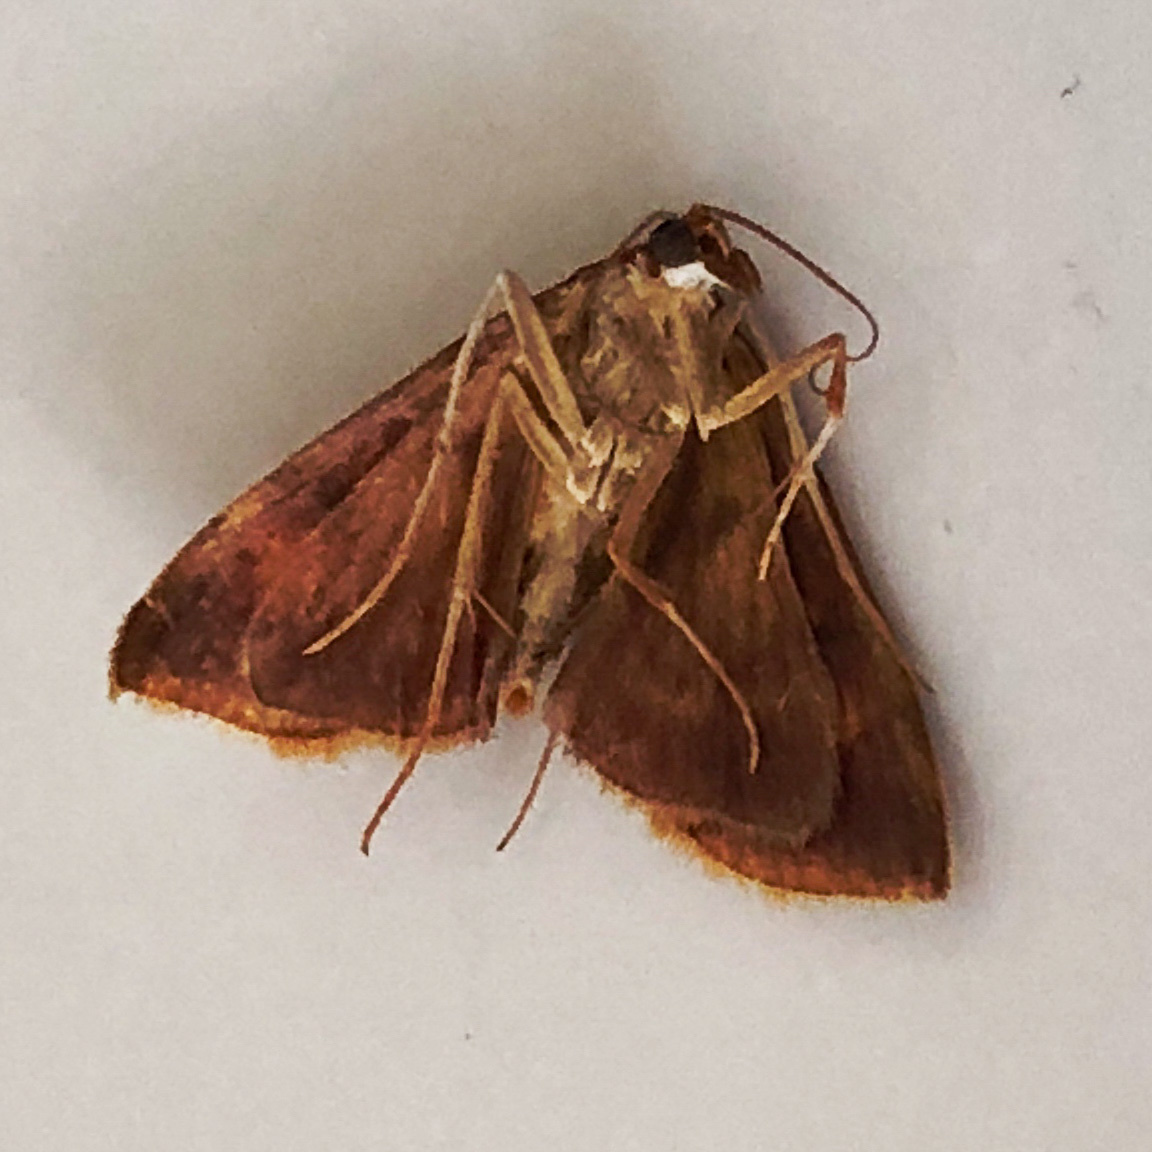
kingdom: Animalia
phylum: Arthropoda
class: Insecta
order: Lepidoptera
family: Crambidae
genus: Pyrausta
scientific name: Pyrausta acrionalis
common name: Mint-loving pyrausta moth
